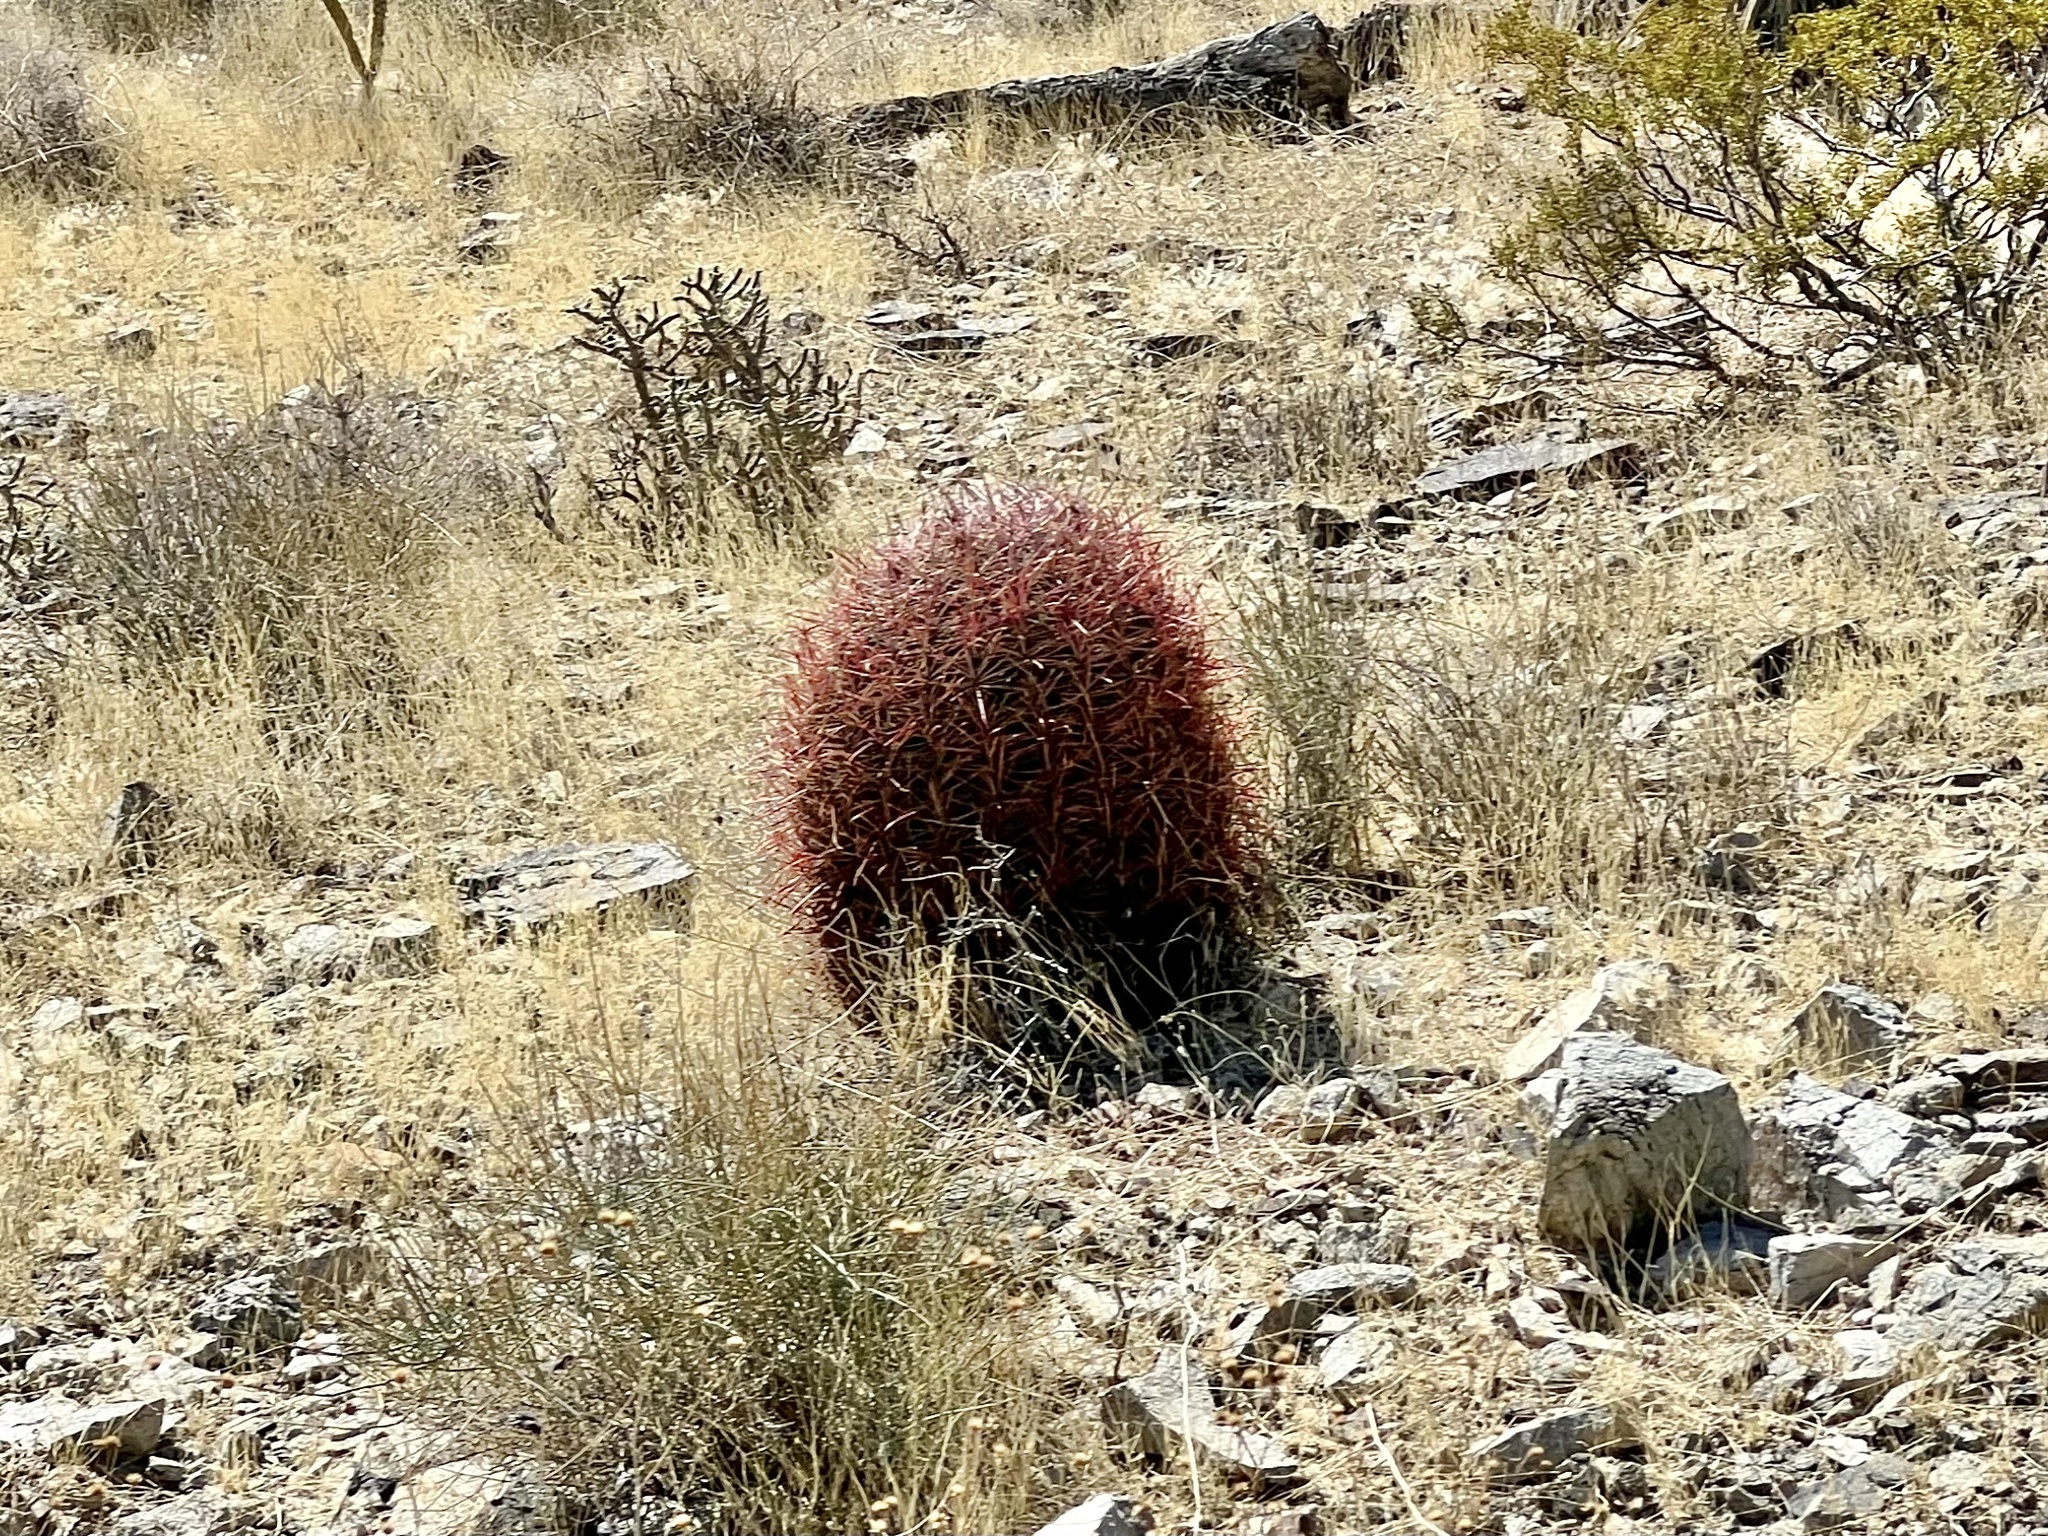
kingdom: Plantae
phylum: Tracheophyta
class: Magnoliopsida
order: Caryophyllales
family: Cactaceae
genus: Ferocactus
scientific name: Ferocactus cylindraceus
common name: California barrel cactus
